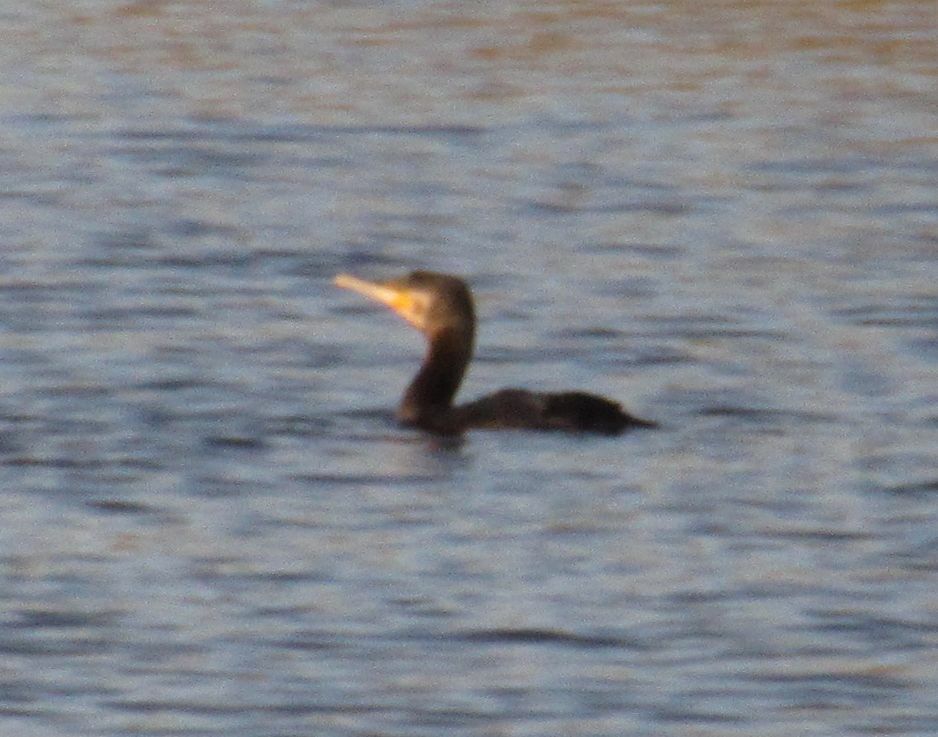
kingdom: Animalia
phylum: Chordata
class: Aves
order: Suliformes
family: Phalacrocoracidae
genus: Phalacrocorax
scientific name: Phalacrocorax carbo
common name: Great cormorant
